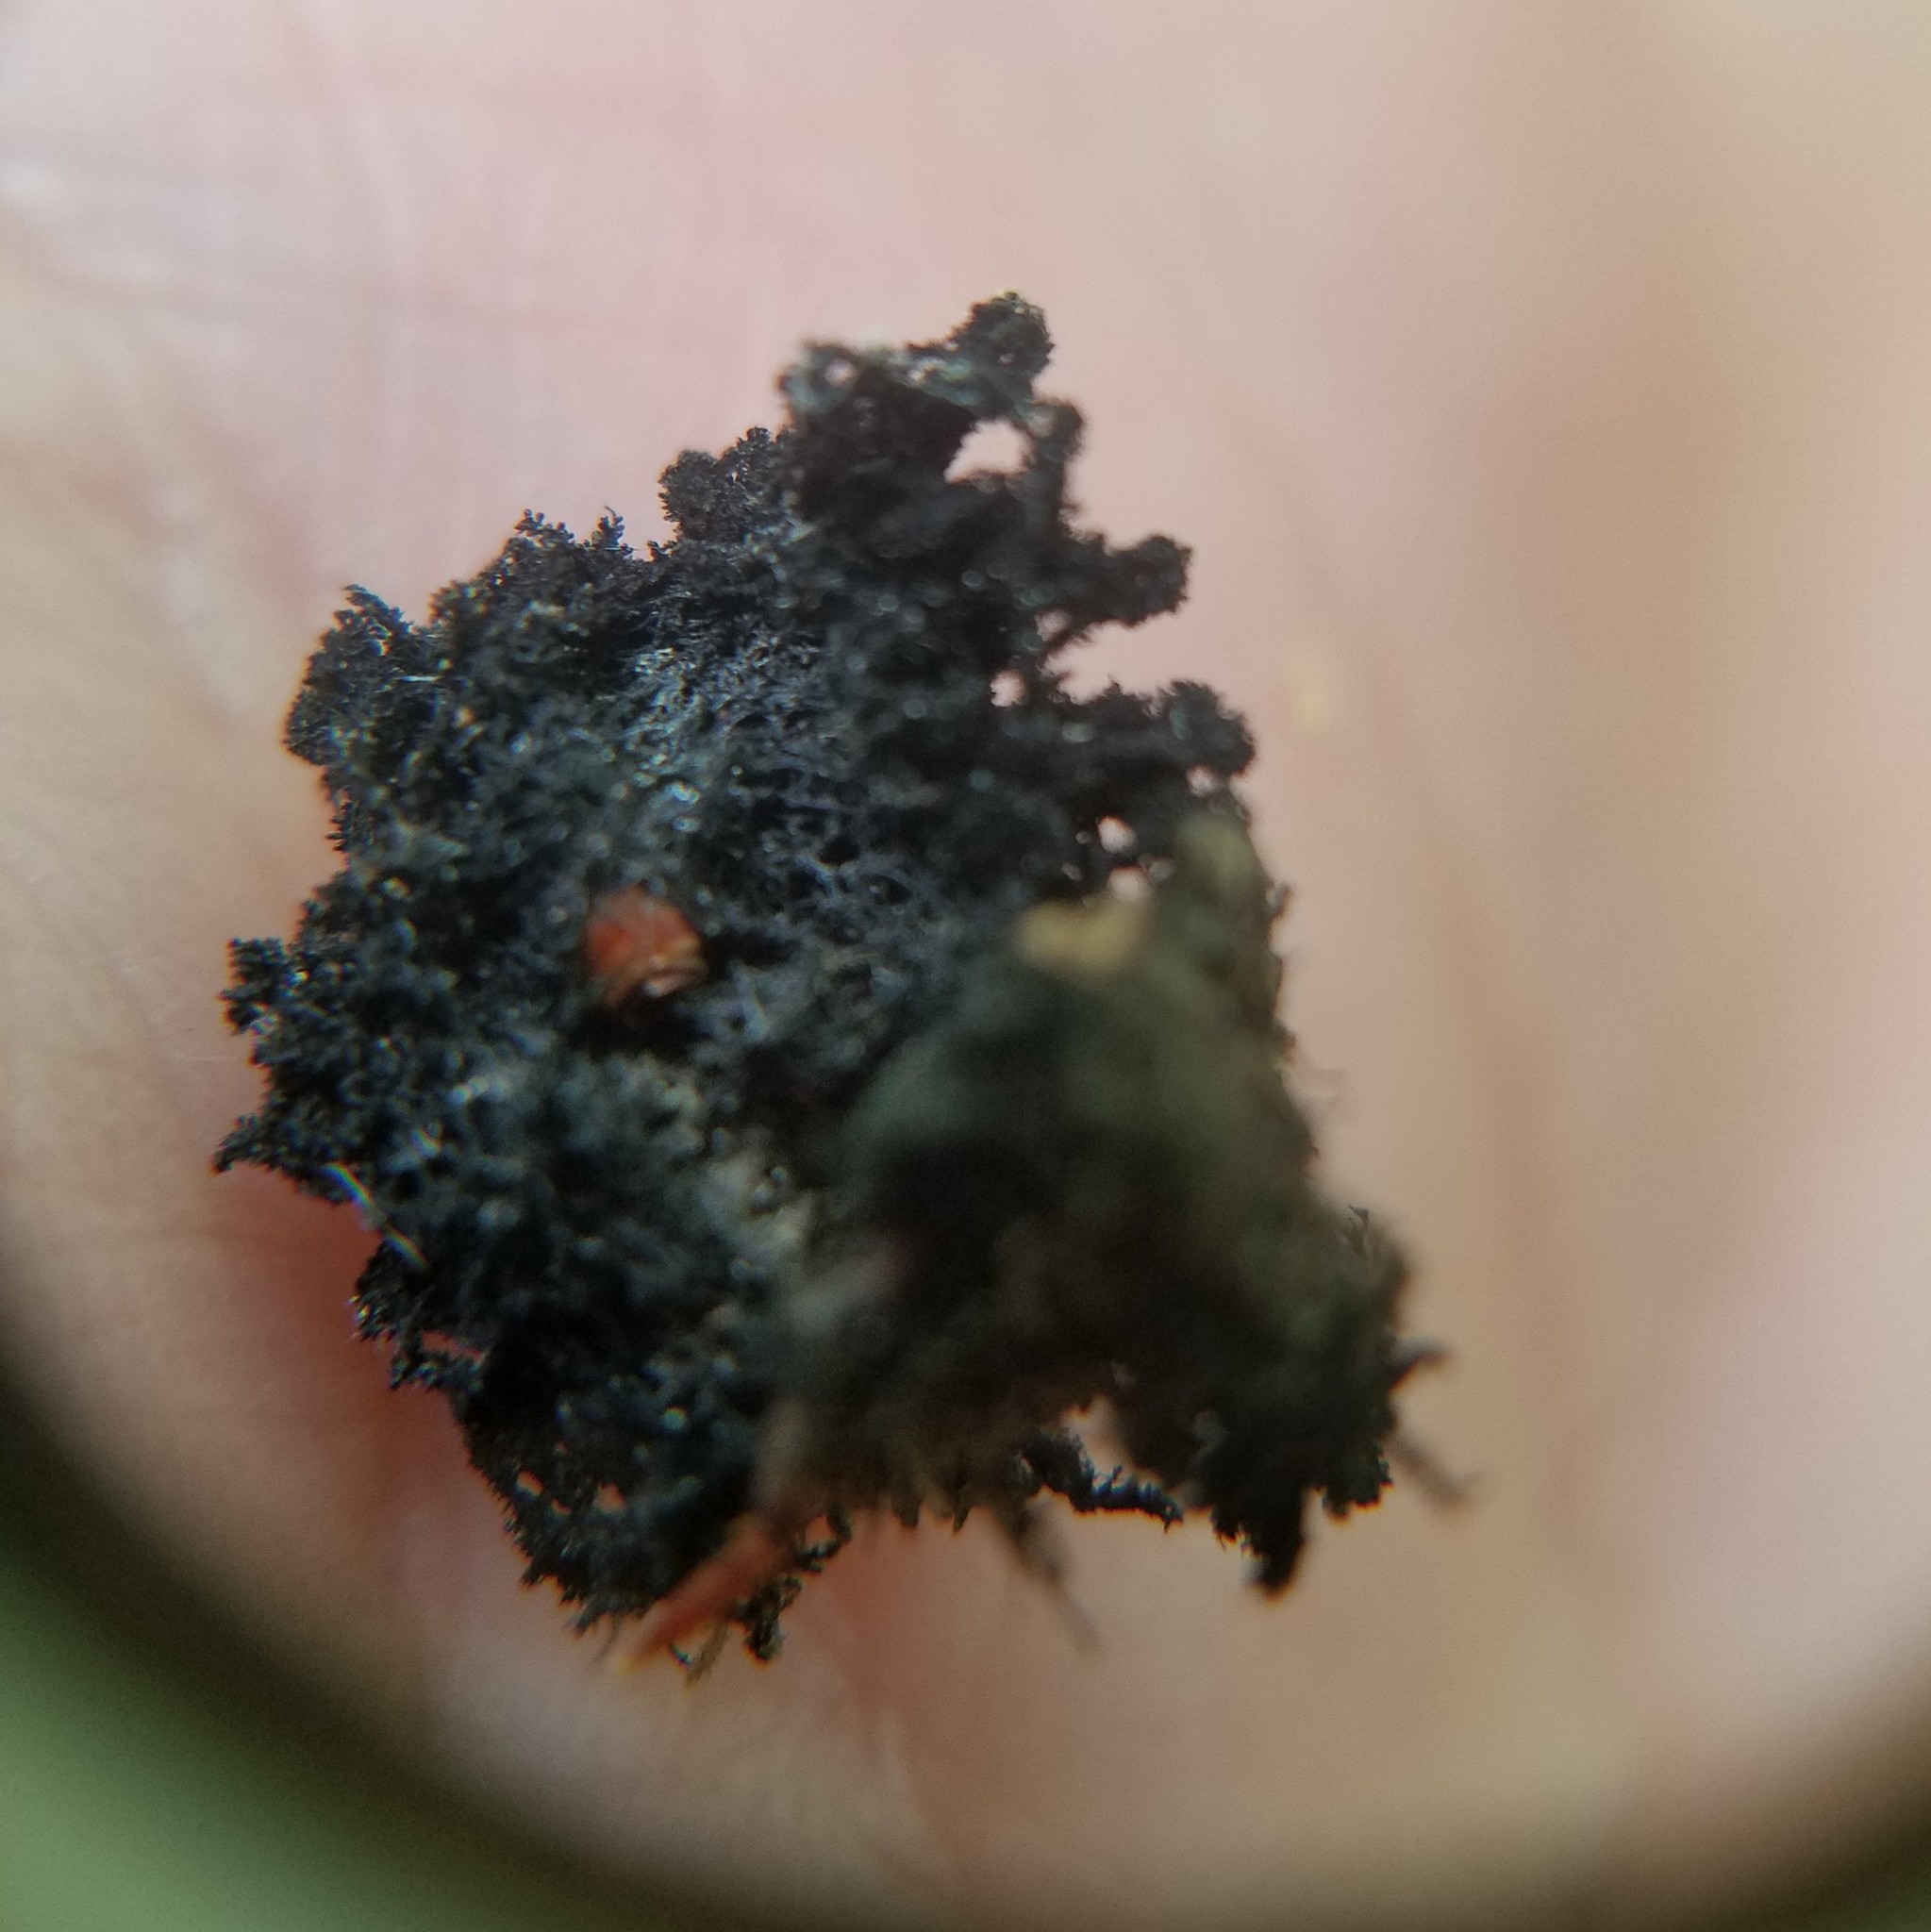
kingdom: Fungi
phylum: Ascomycota
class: Dothideomycetes
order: Capnodiales
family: Capnodiaceae
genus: Scorias
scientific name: Scorias spongiosa
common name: Black sooty mold
